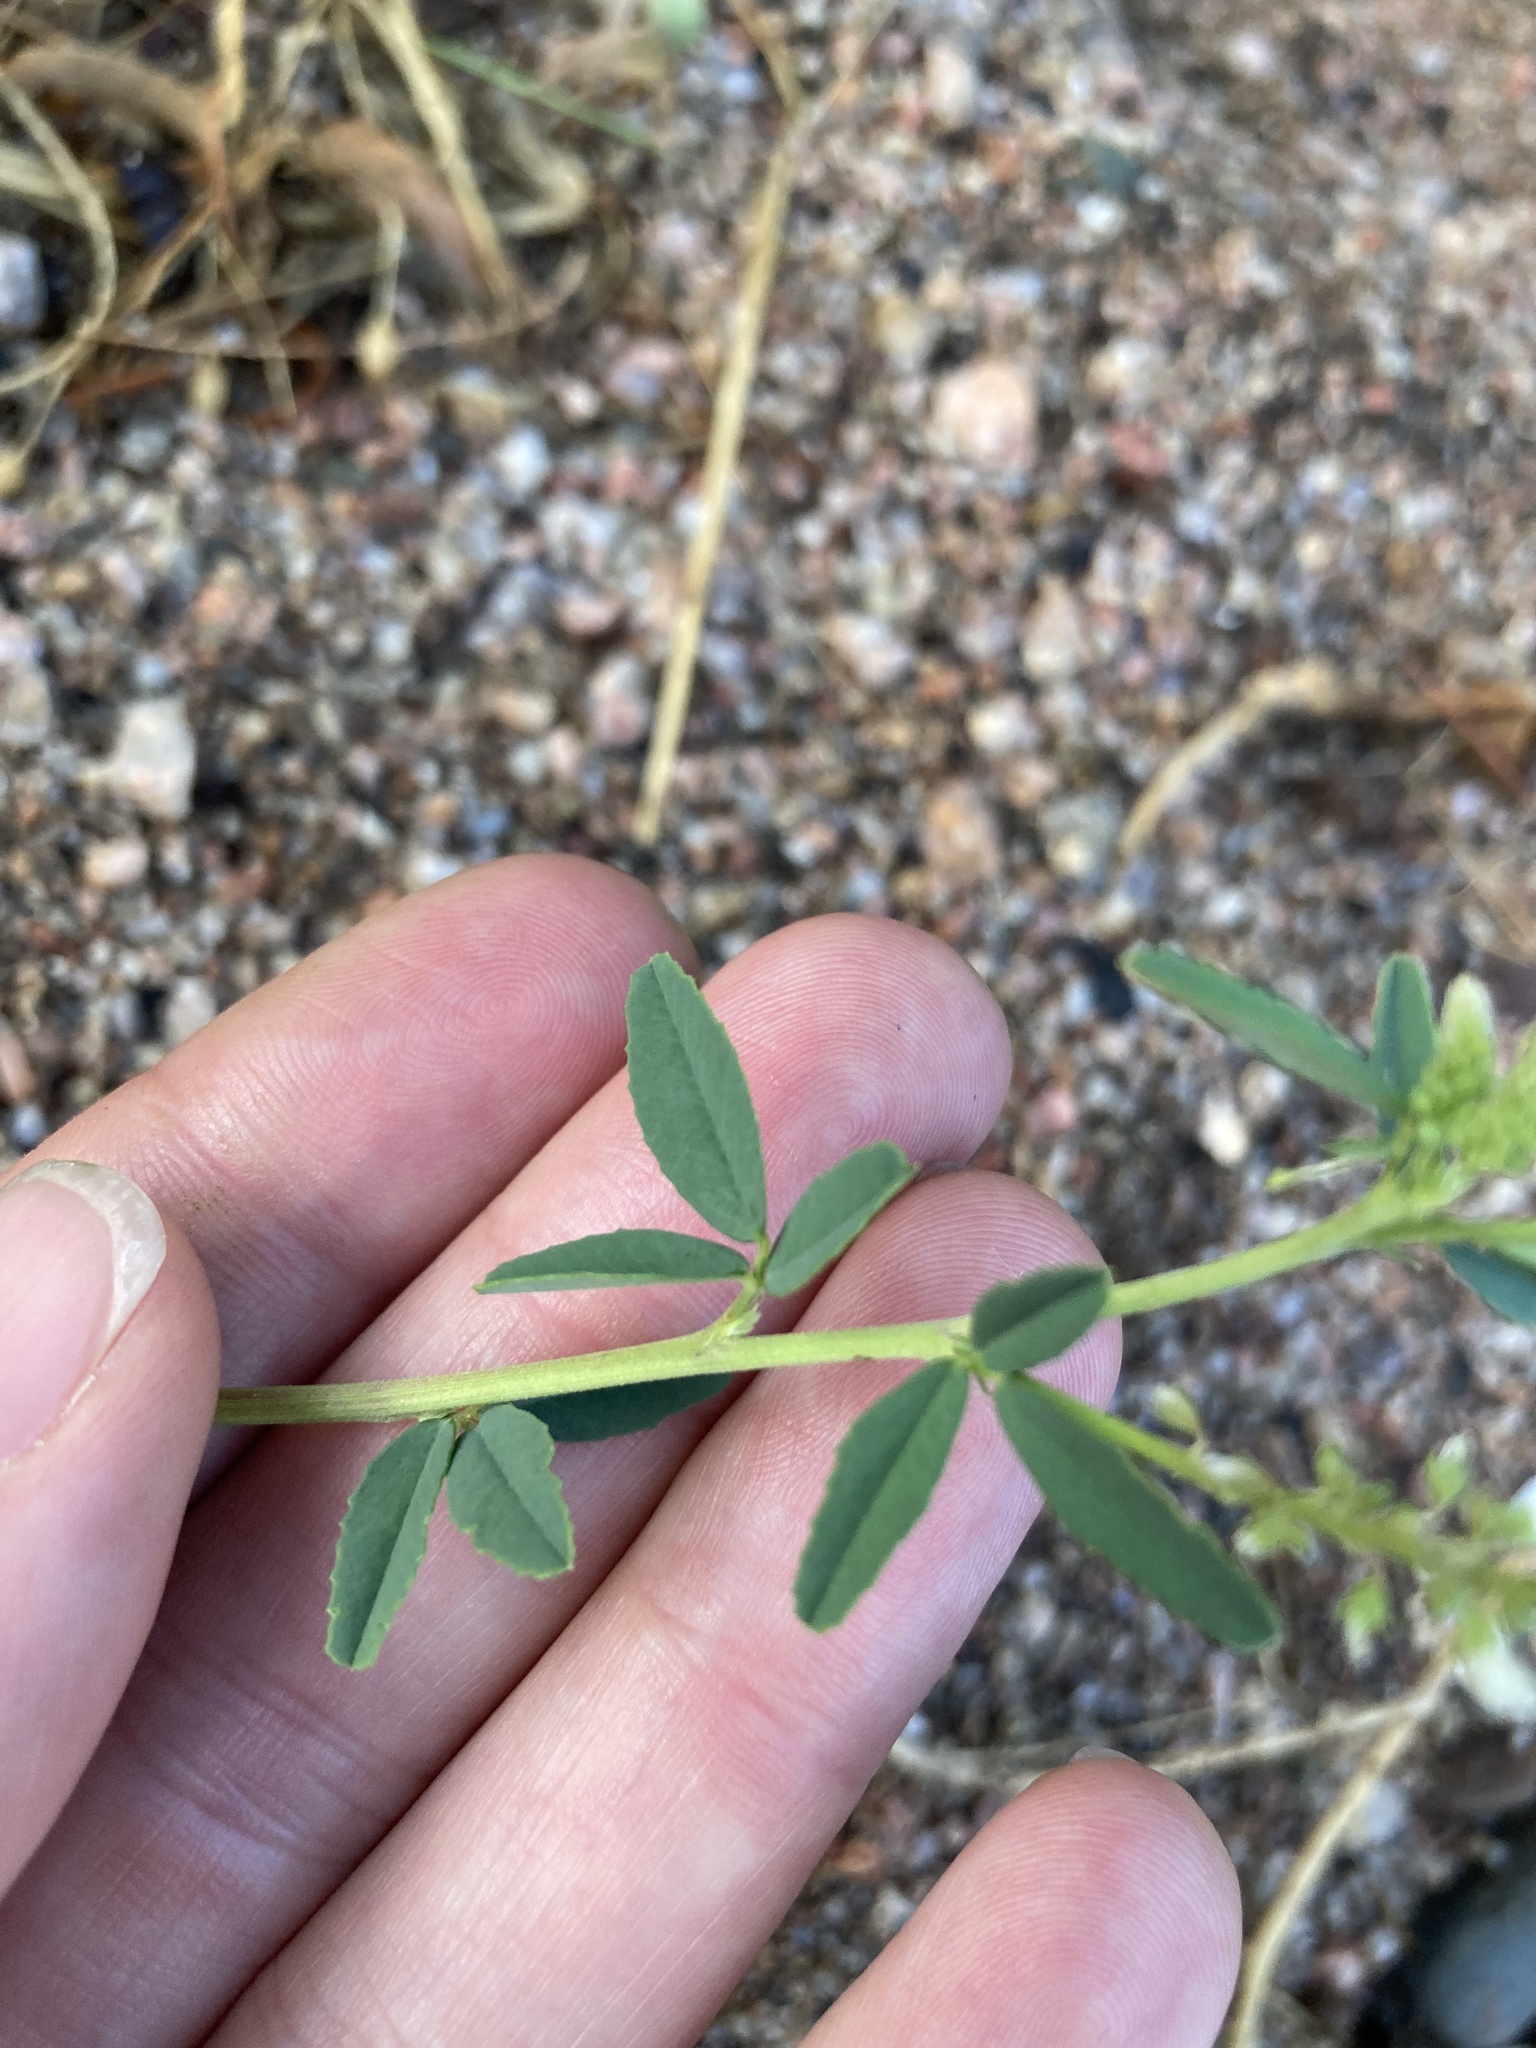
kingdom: Plantae
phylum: Tracheophyta
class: Magnoliopsida
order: Fabales
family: Fabaceae
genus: Melilotus
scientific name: Melilotus albus
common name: White melilot
